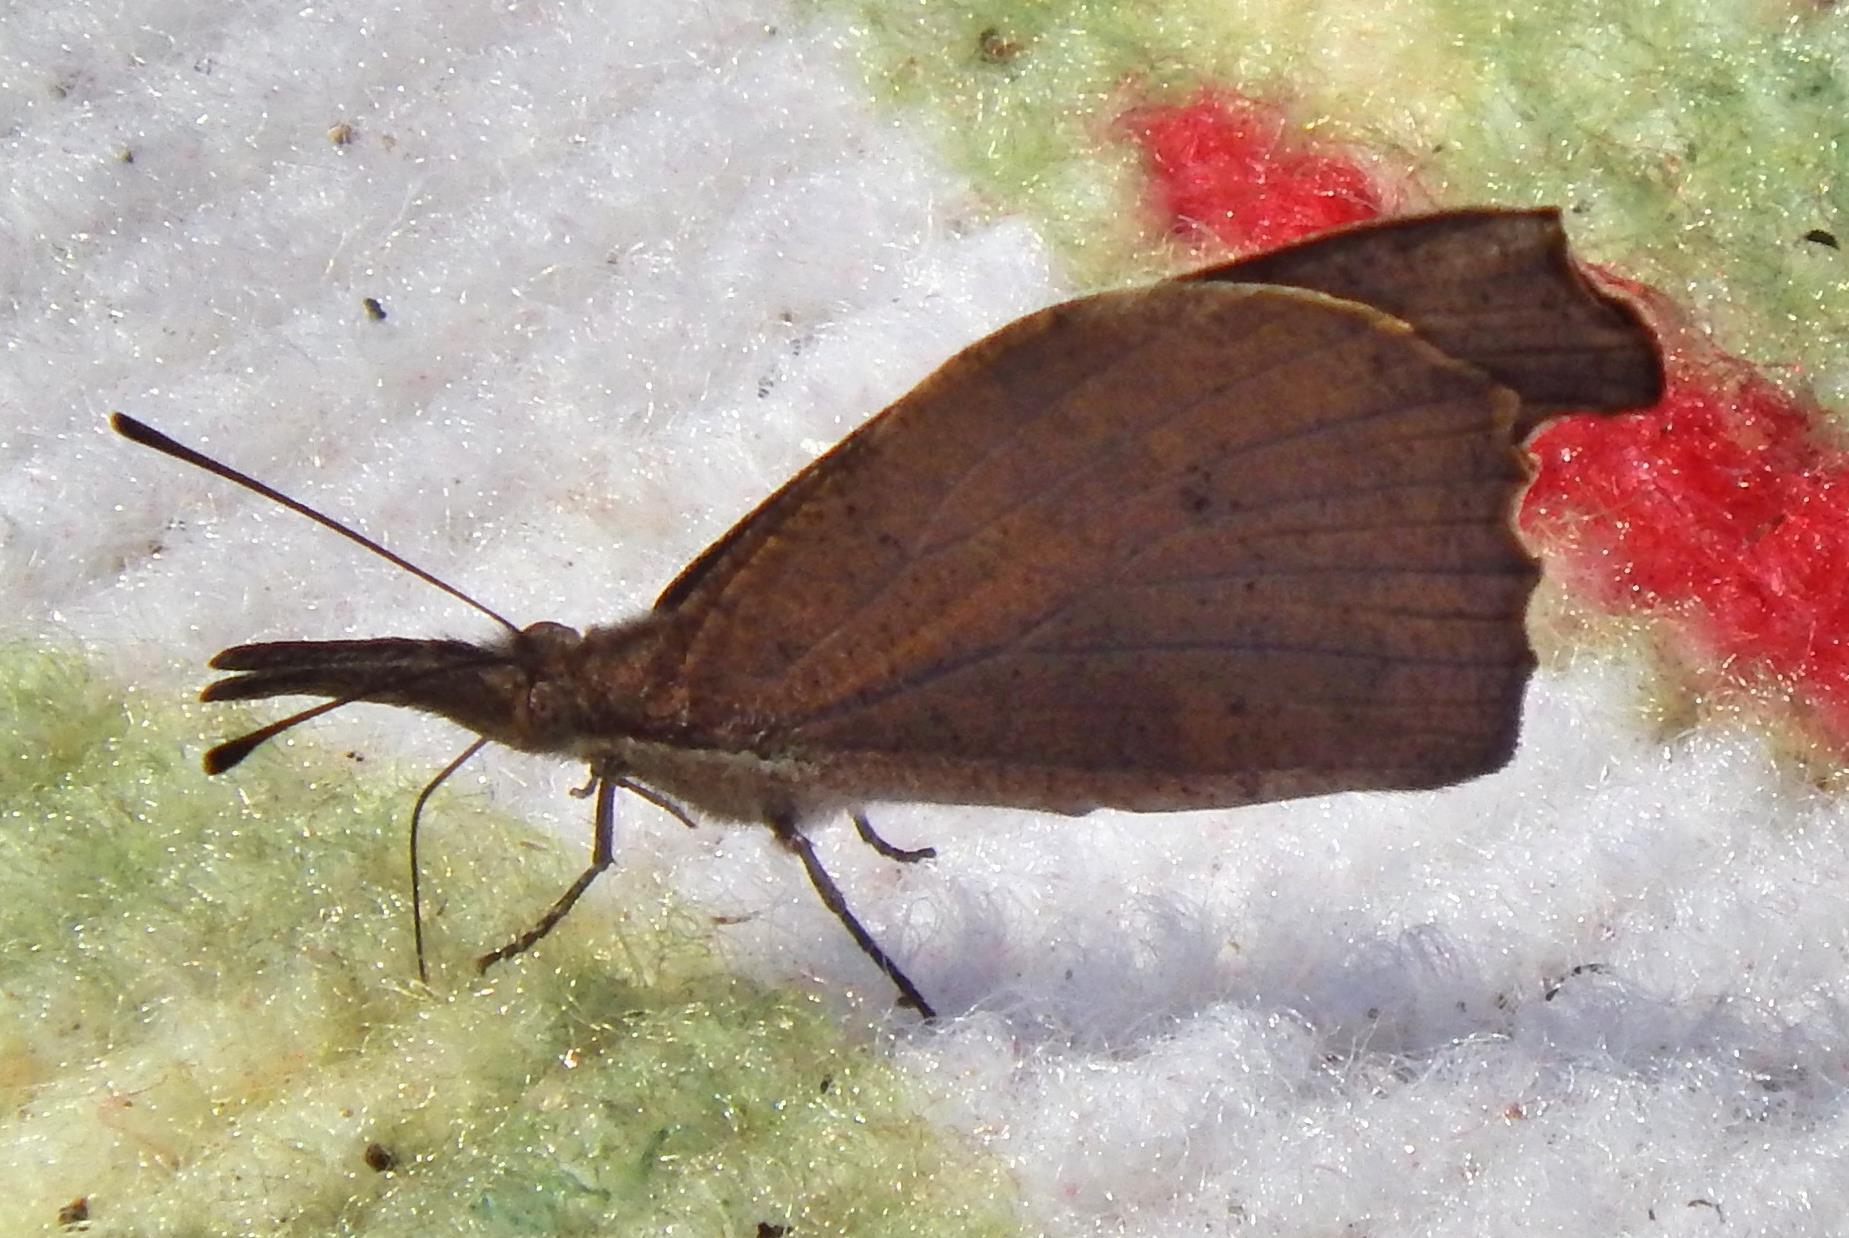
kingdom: Animalia
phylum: Arthropoda
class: Insecta
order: Lepidoptera
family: Nymphalidae
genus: Libytheana
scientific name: Libytheana carinenta
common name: American snout
